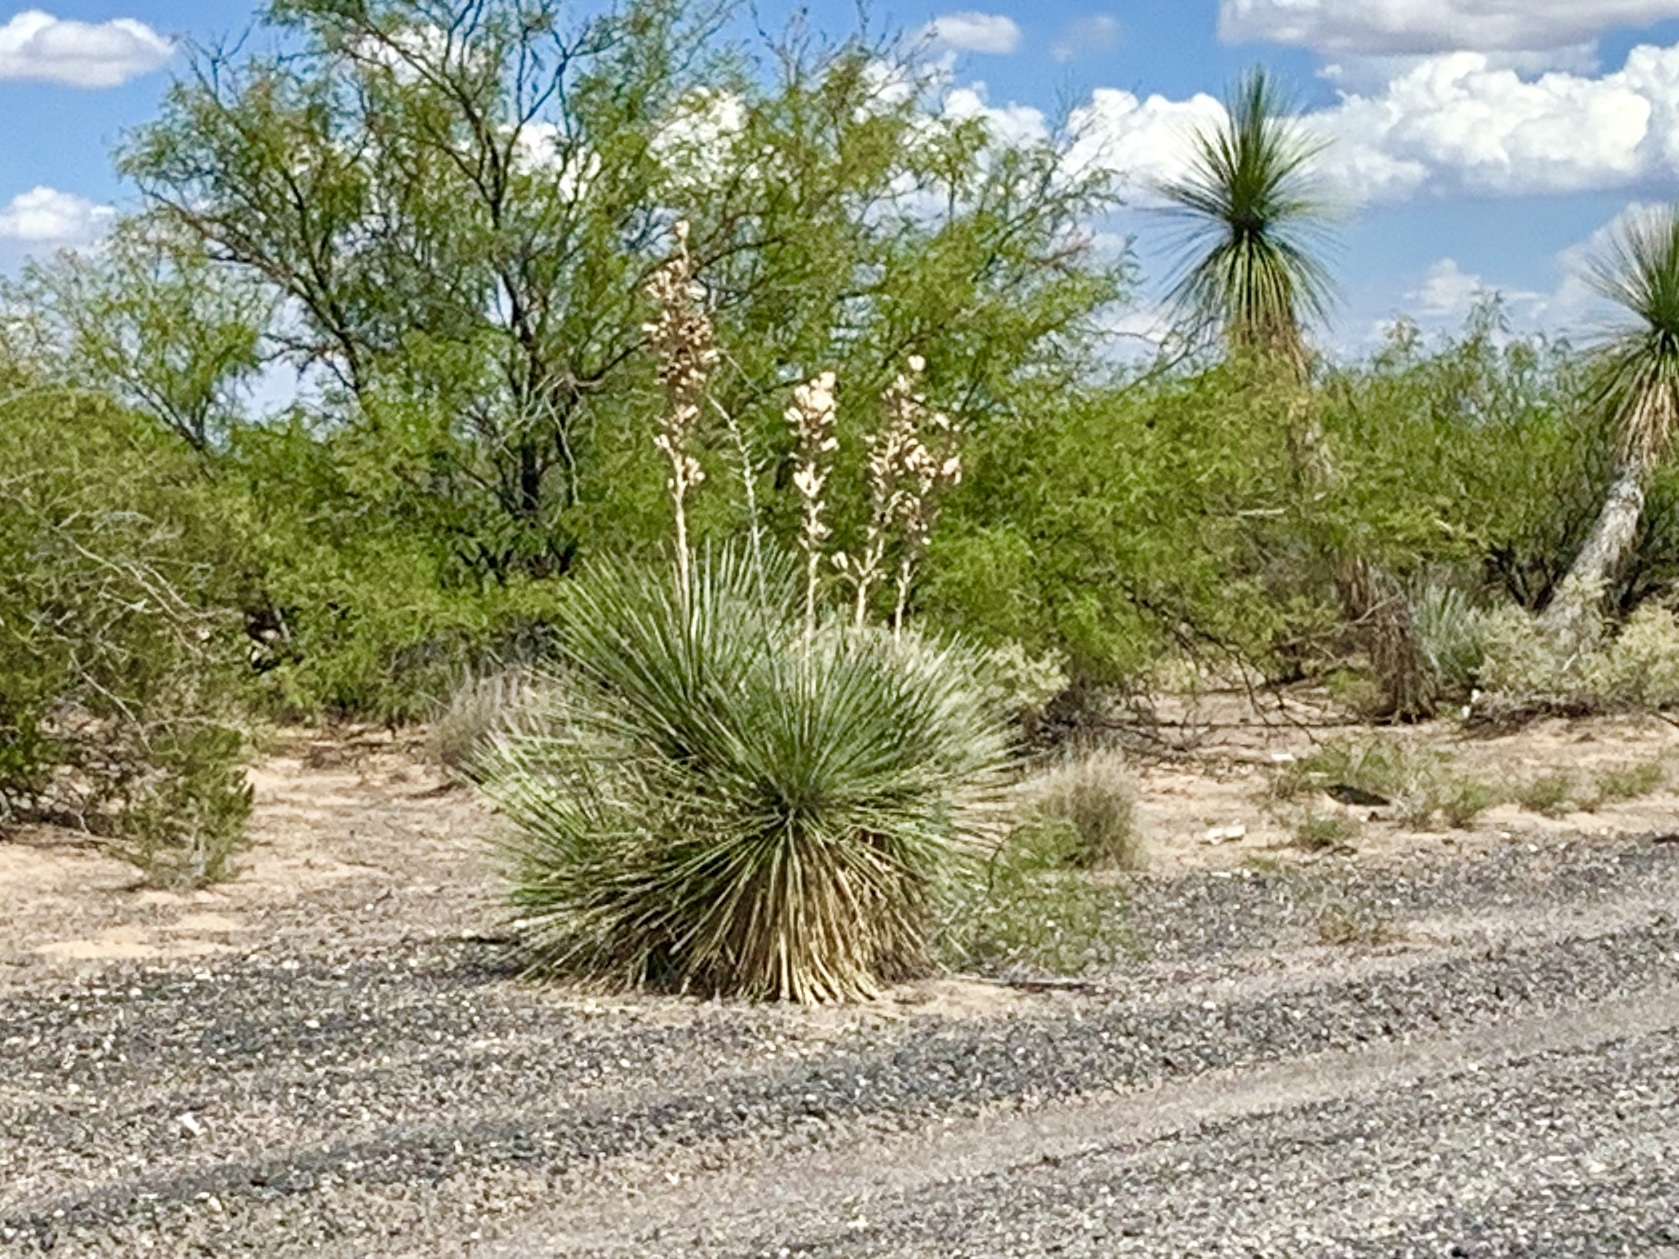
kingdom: Plantae
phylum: Tracheophyta
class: Liliopsida
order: Asparagales
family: Asparagaceae
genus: Yucca
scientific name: Yucca elata
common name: Palmella
